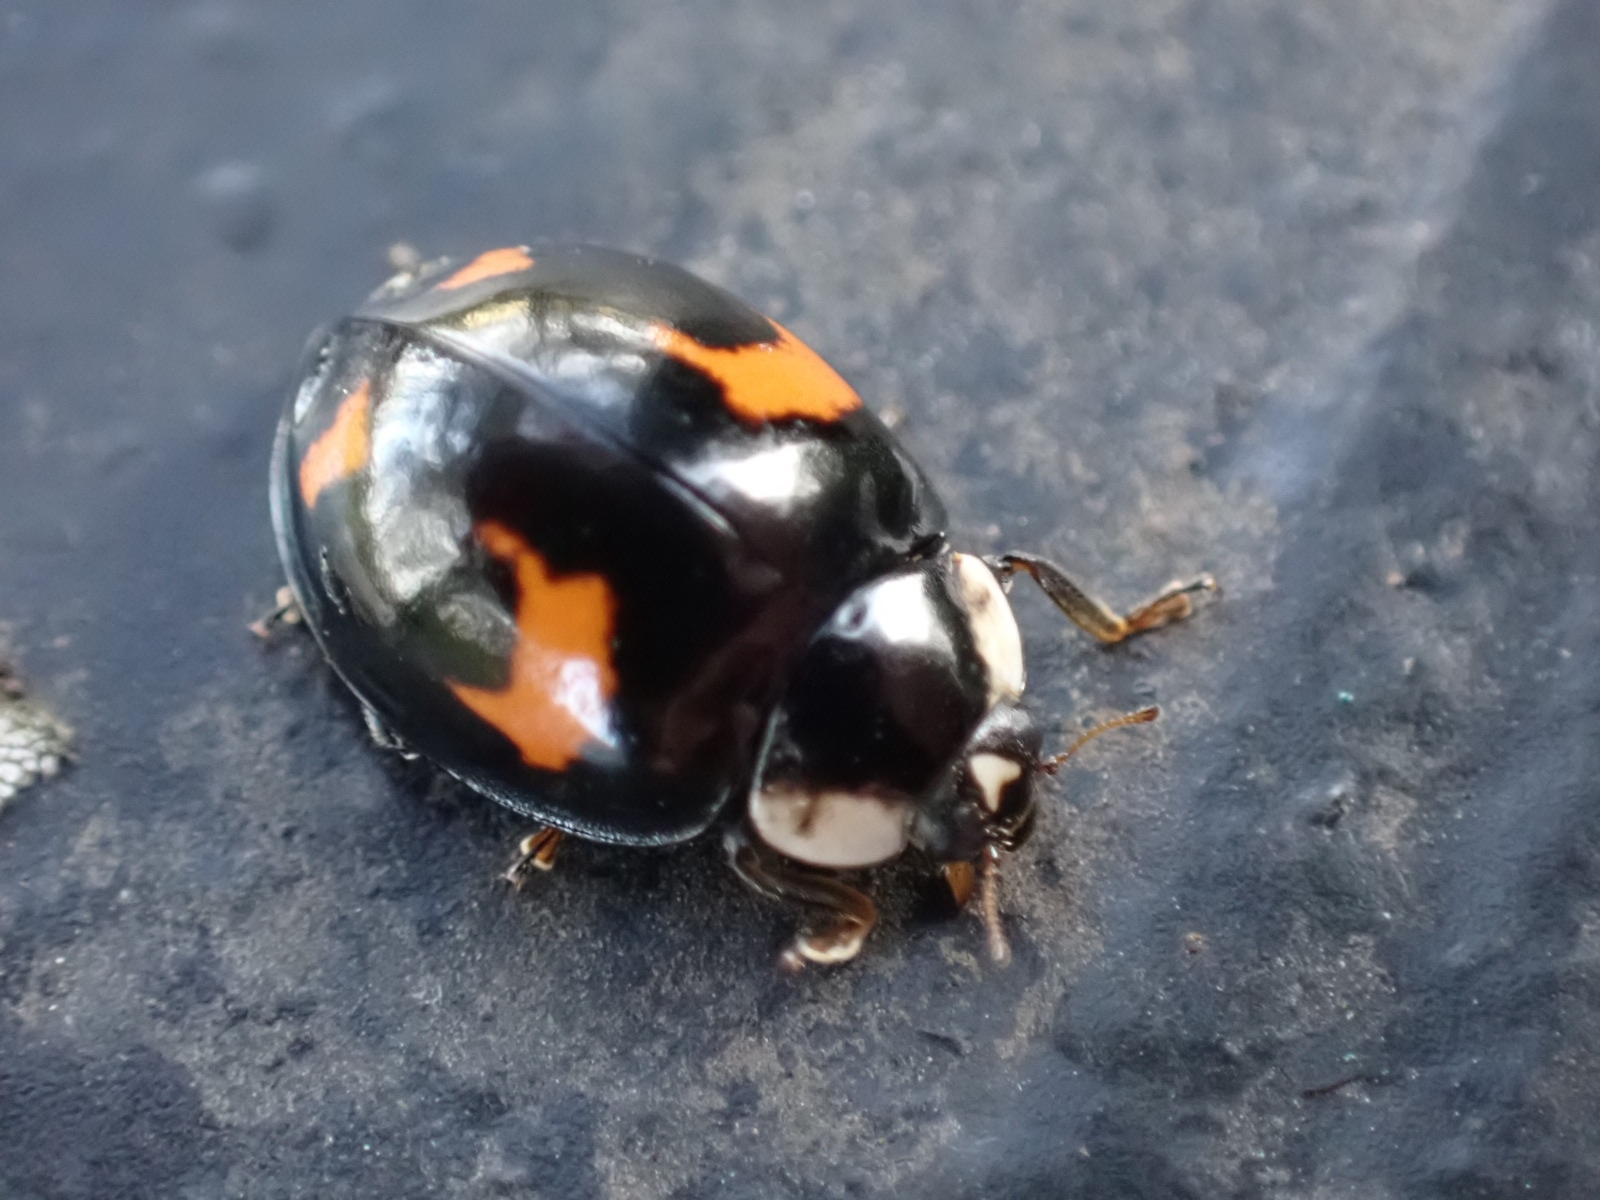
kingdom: Animalia
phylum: Arthropoda
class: Insecta
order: Coleoptera
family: Coccinellidae
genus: Harmonia
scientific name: Harmonia axyridis
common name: Harlequin ladybird
